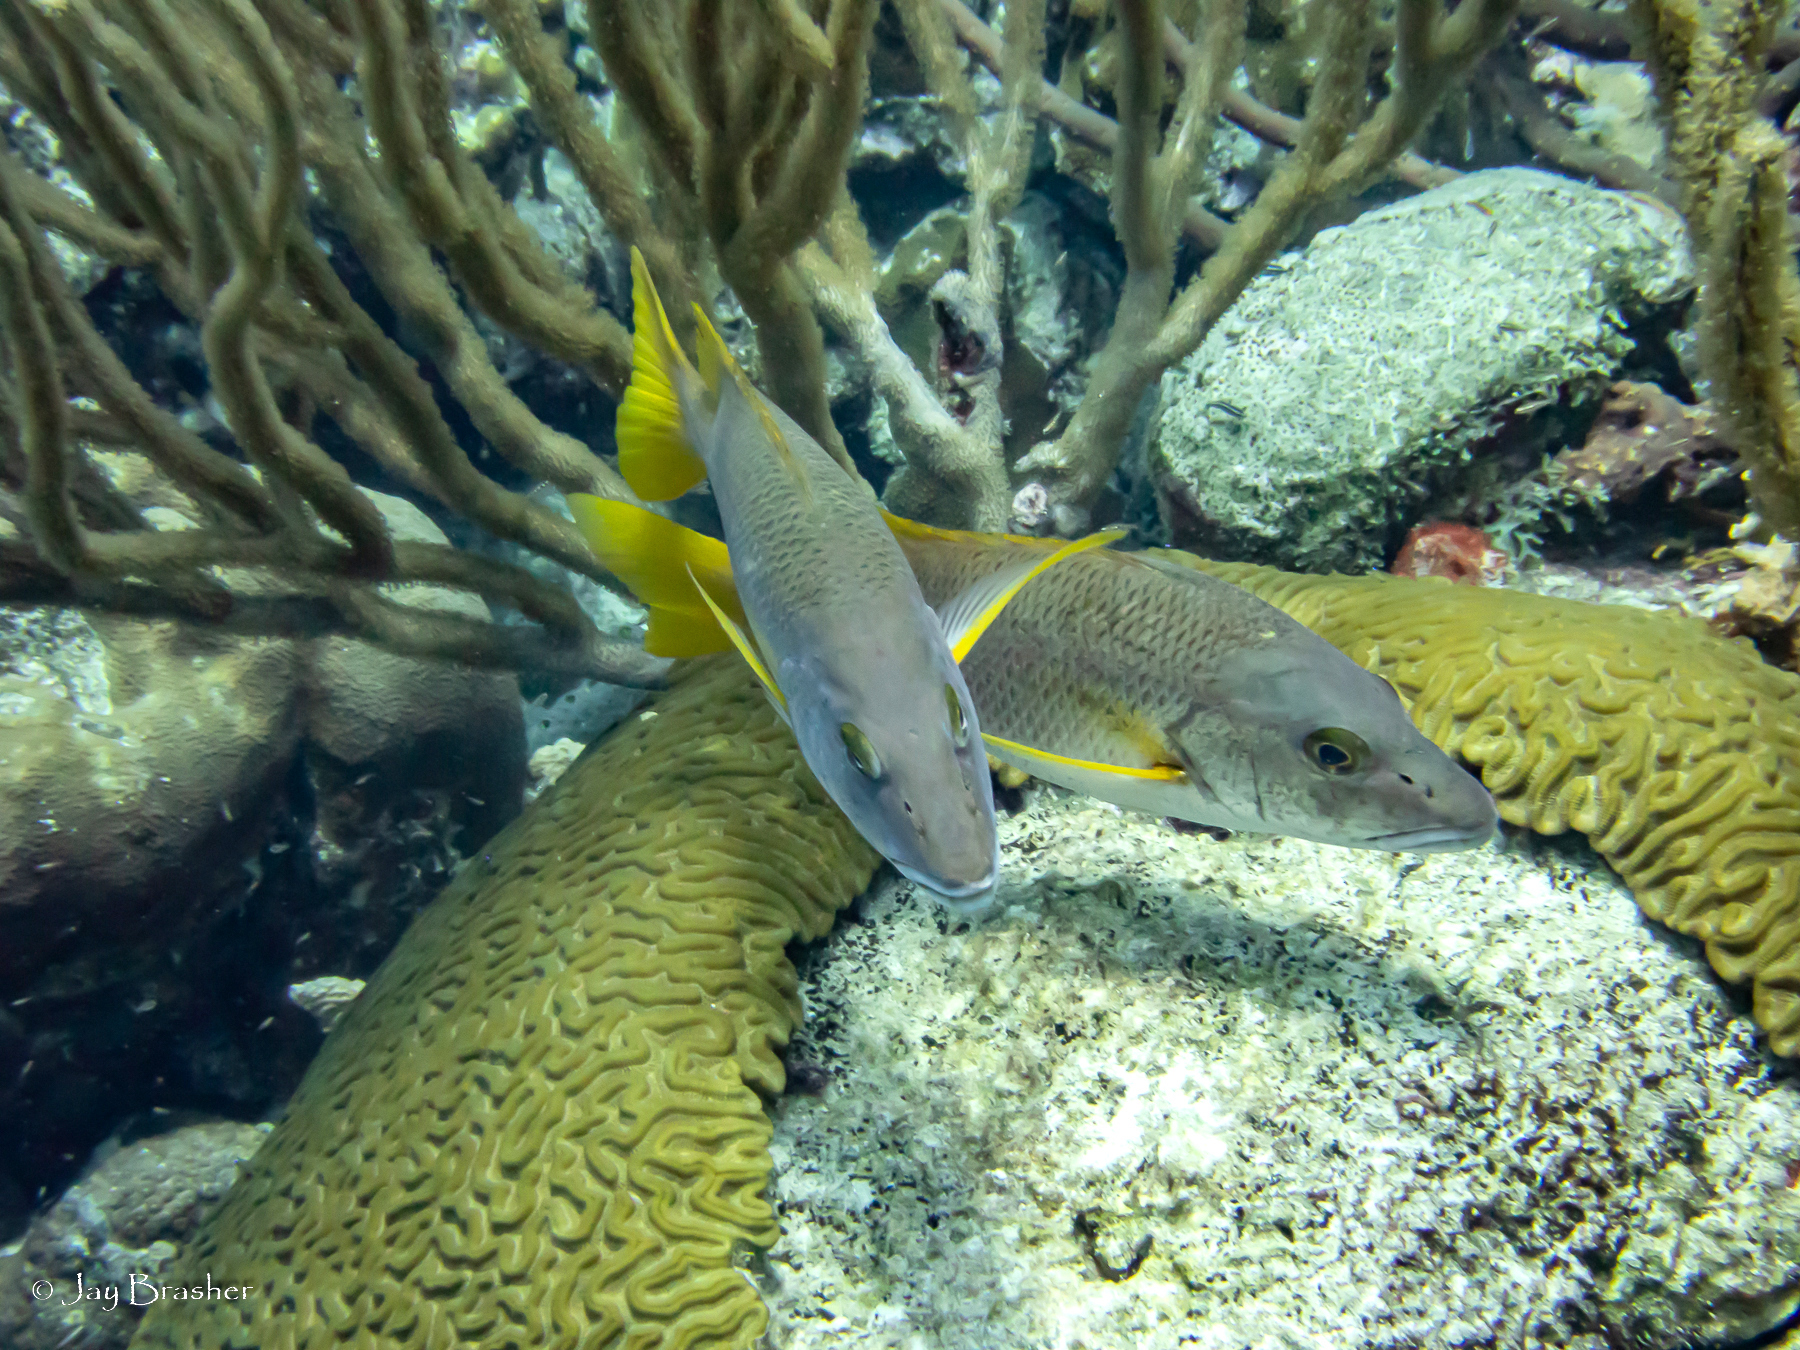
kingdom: Animalia
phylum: Chordata
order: Perciformes
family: Lutjanidae
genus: Lutjanus
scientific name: Lutjanus apodus
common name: Schoolmaster
